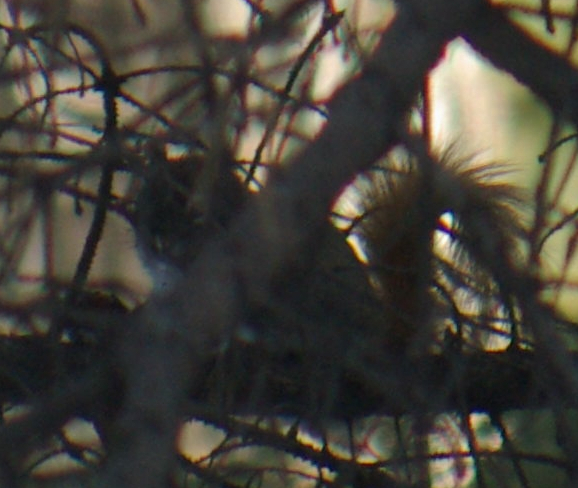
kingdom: Animalia
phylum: Chordata
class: Mammalia
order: Rodentia
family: Sciuridae
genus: Tamiasciurus
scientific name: Tamiasciurus hudsonicus
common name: Red squirrel
